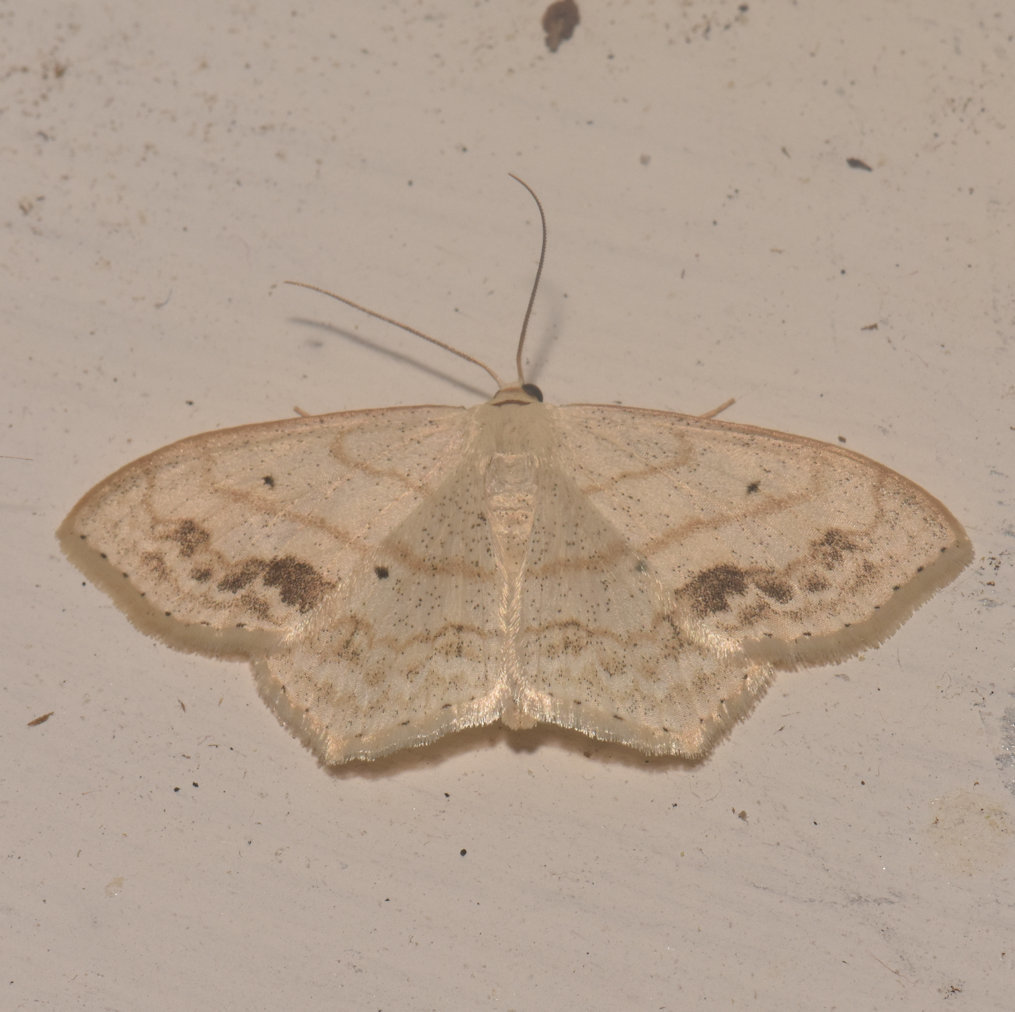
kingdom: Animalia
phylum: Arthropoda
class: Insecta
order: Lepidoptera
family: Geometridae
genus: Scopula
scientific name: Scopula limboundata
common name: Large lace border
